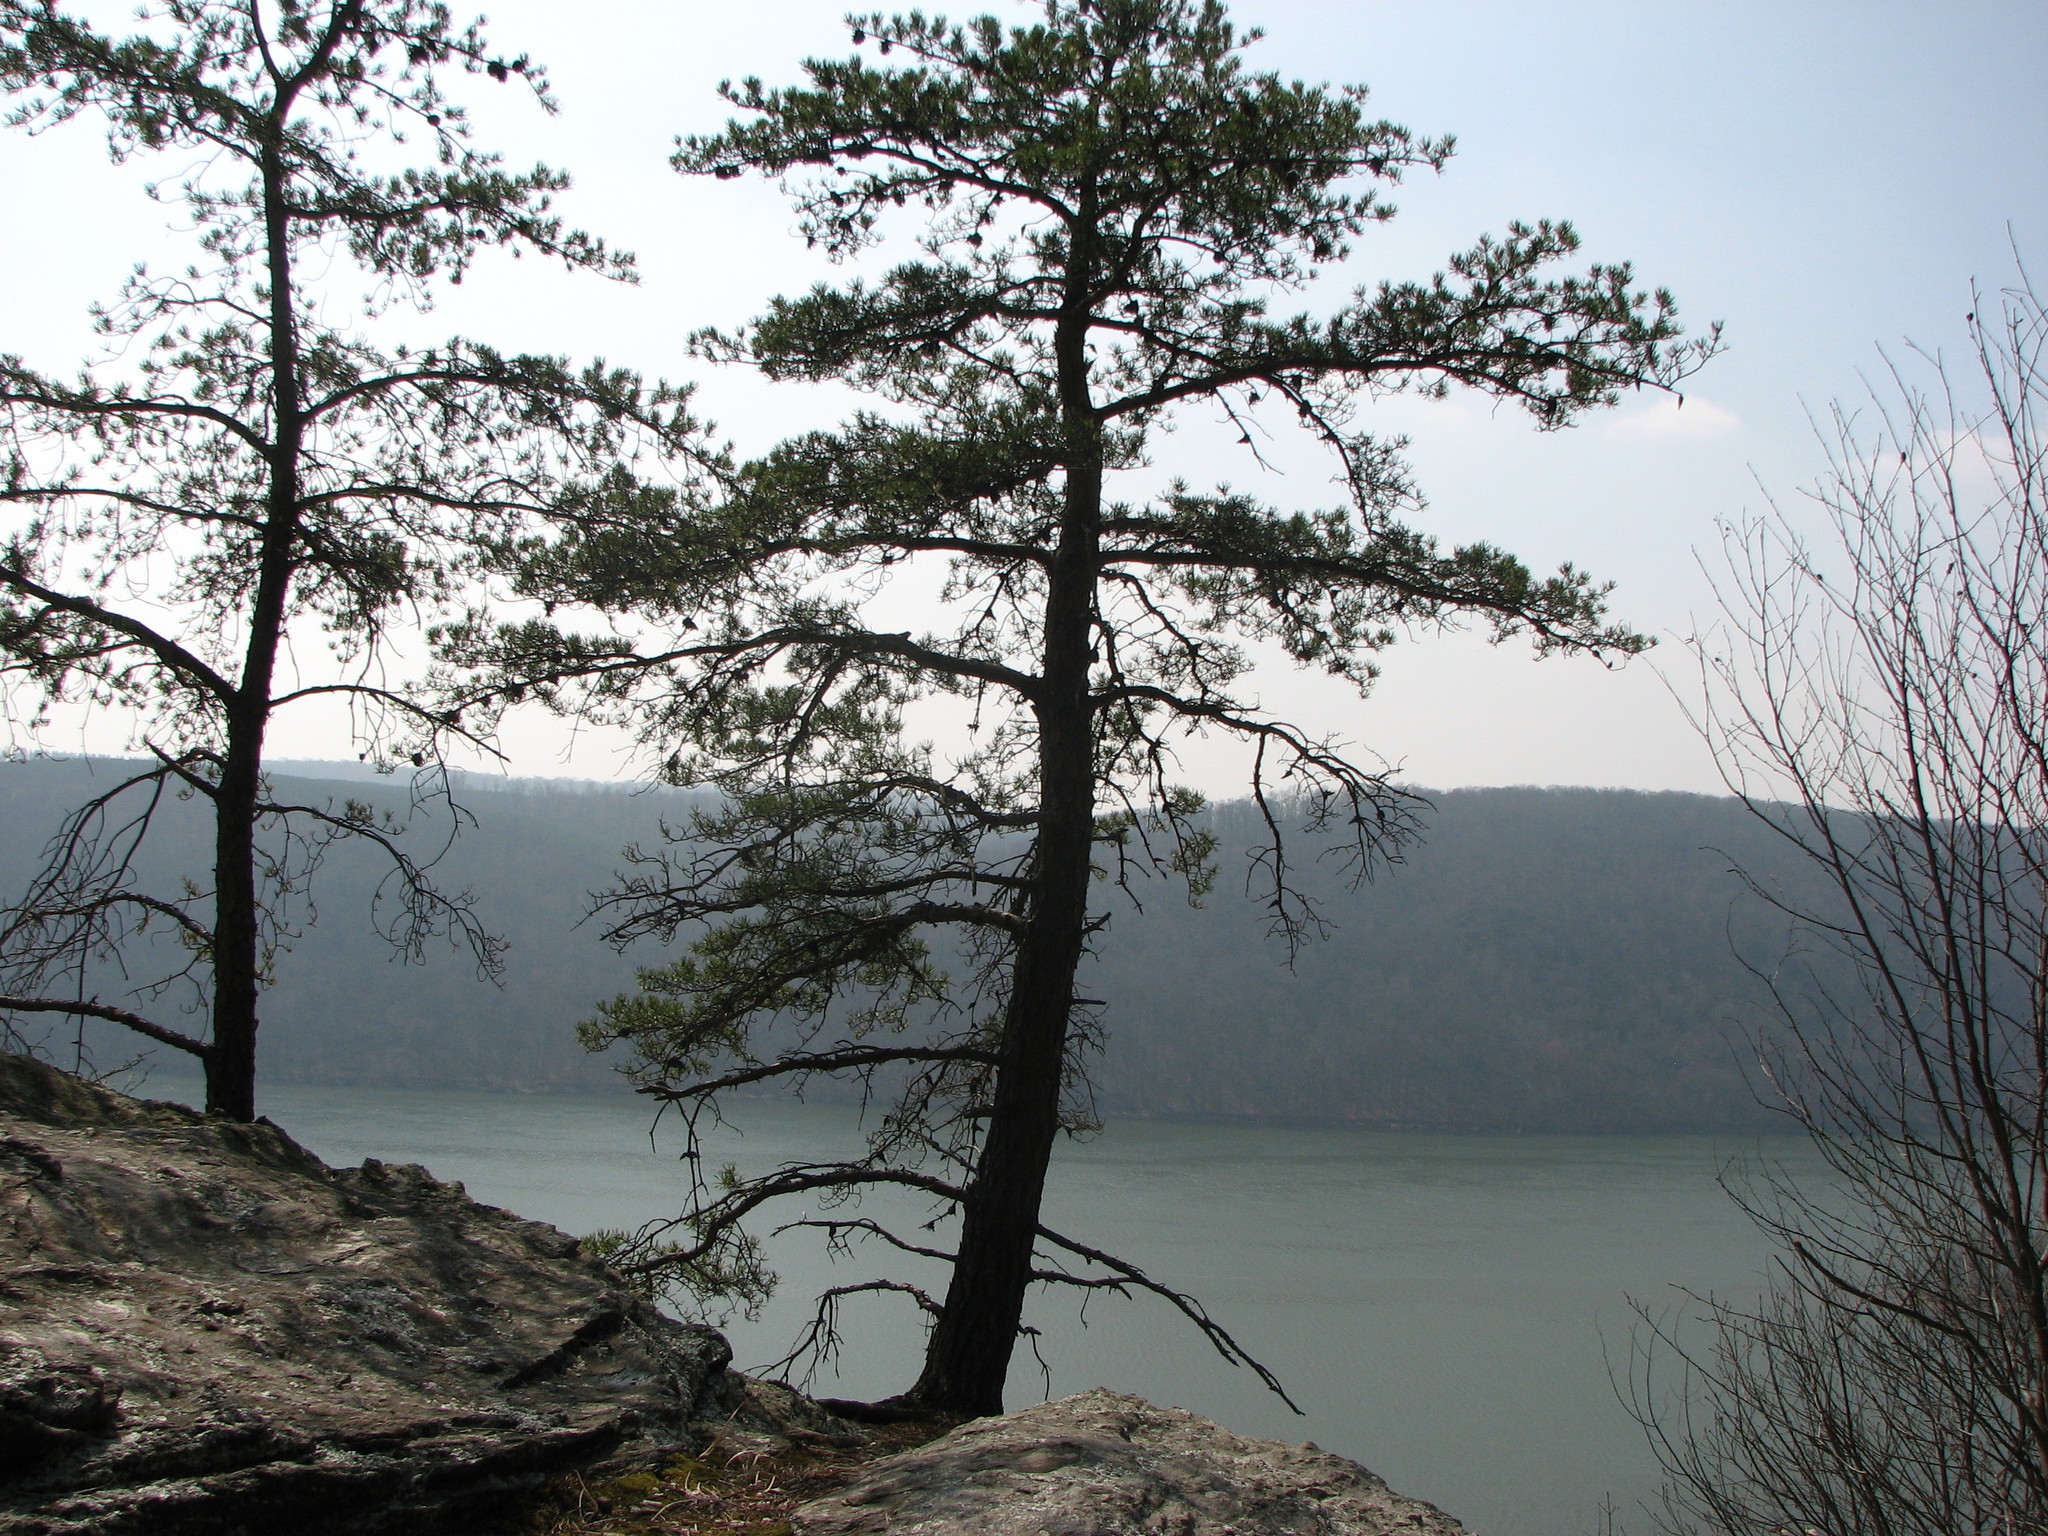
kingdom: Plantae
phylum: Tracheophyta
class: Pinopsida
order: Pinales
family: Pinaceae
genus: Pinus
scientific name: Pinus virginiana
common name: Scrub pine
